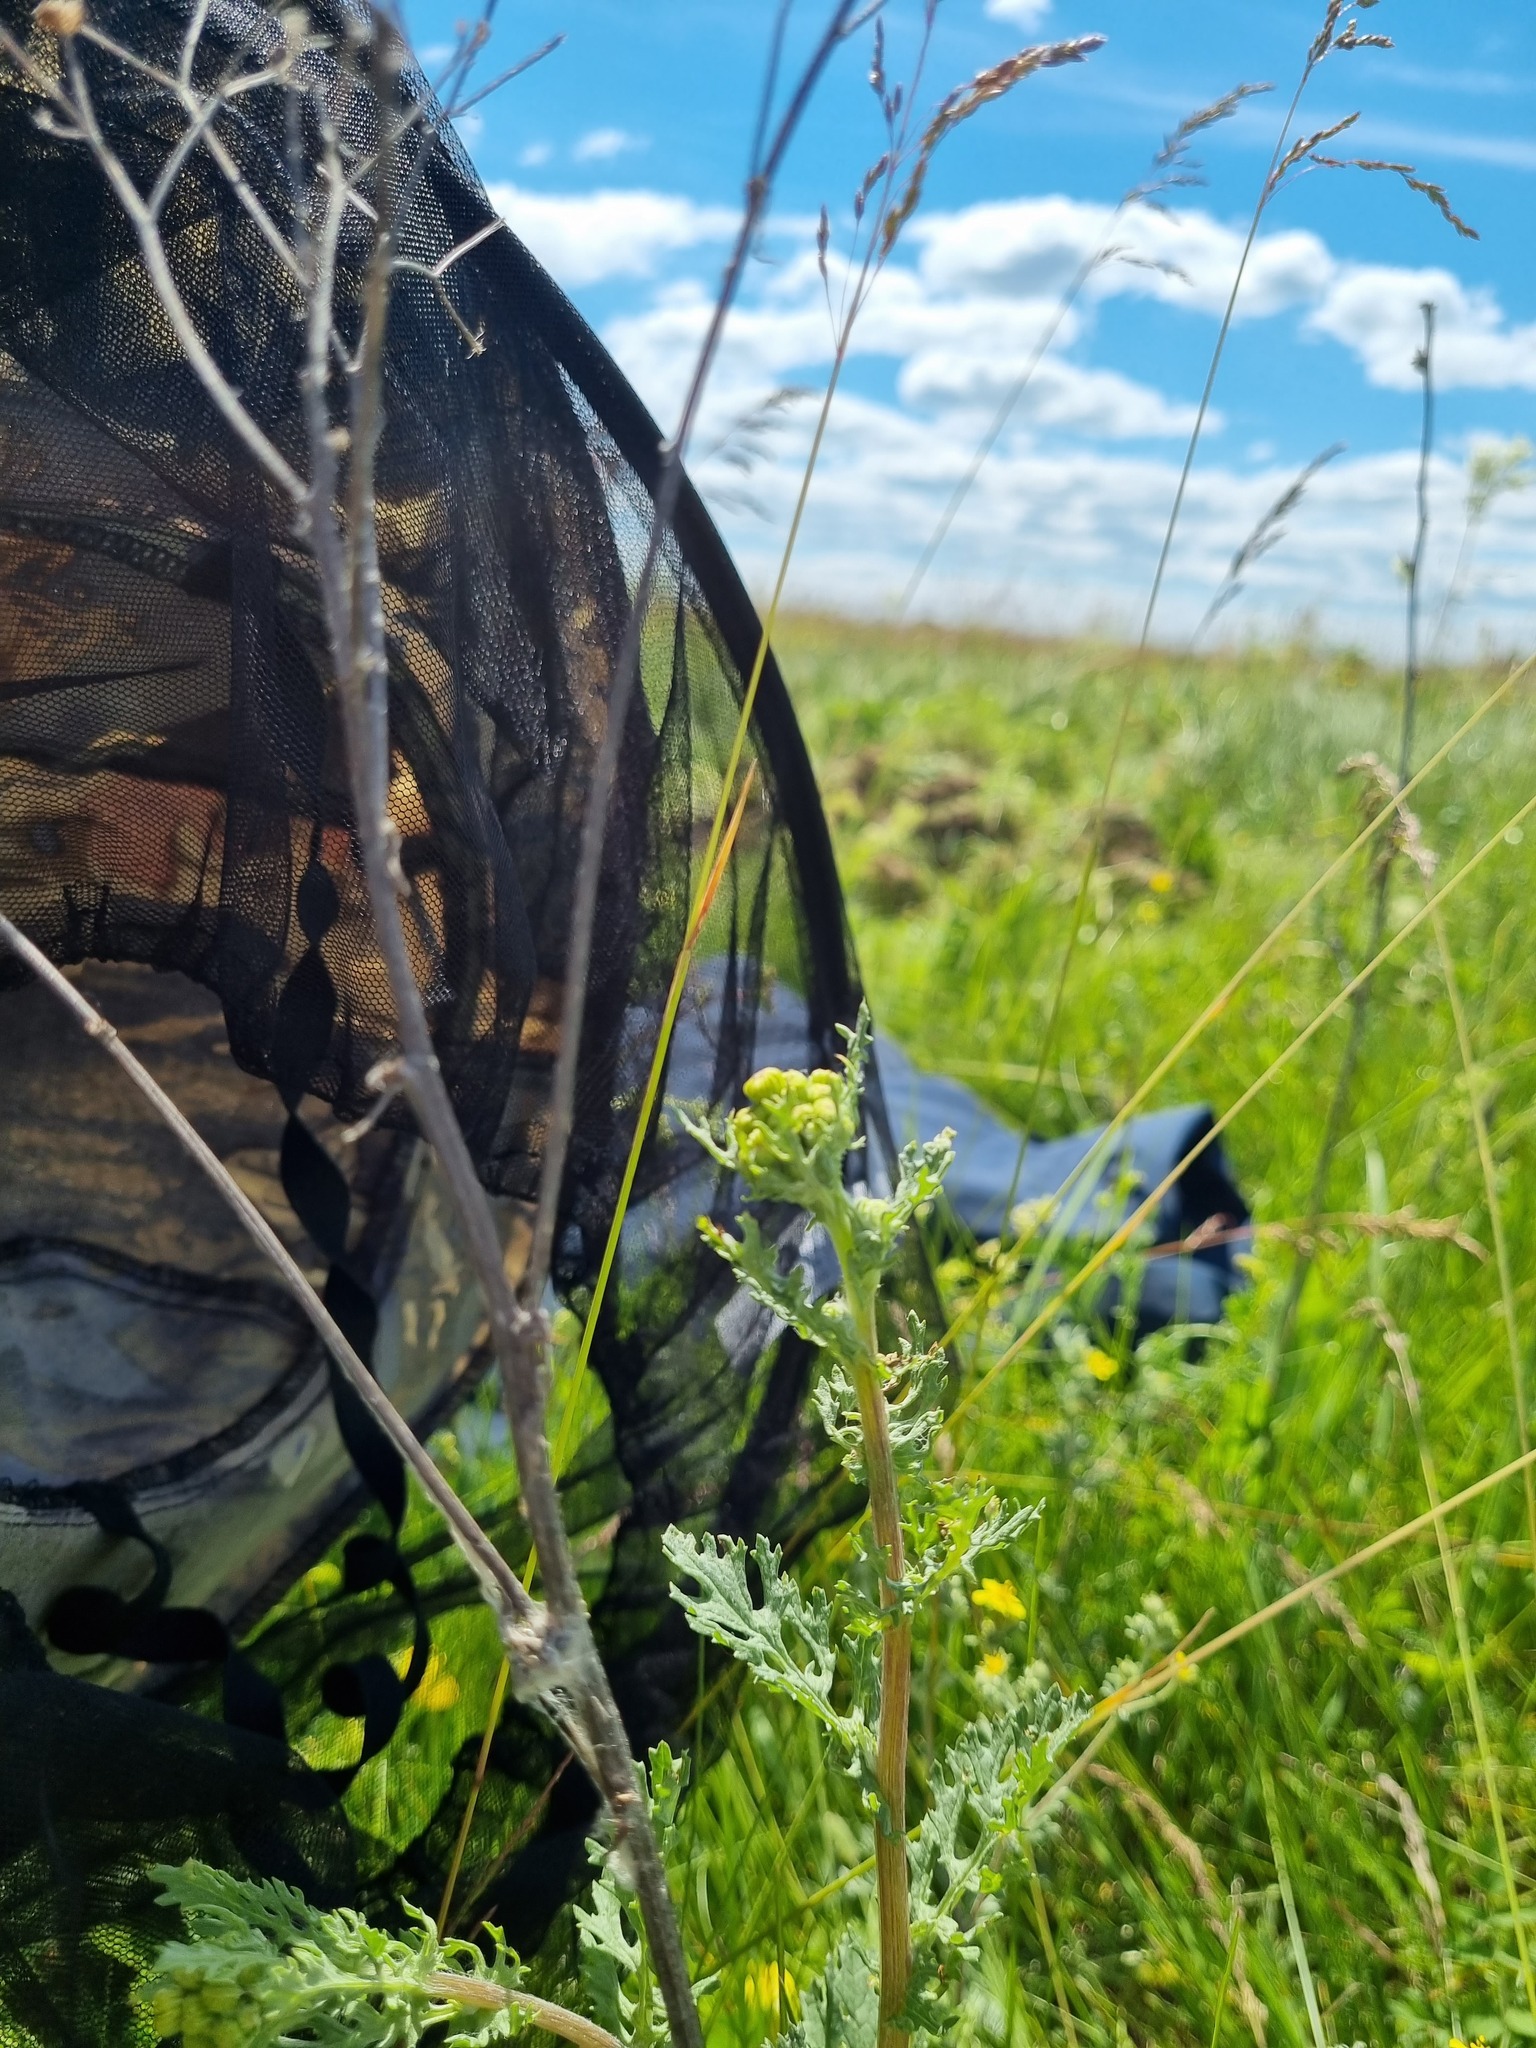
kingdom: Plantae
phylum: Tracheophyta
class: Magnoliopsida
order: Asterales
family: Asteraceae
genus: Jacobaea
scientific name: Jacobaea vulgaris
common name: Stinking willie
